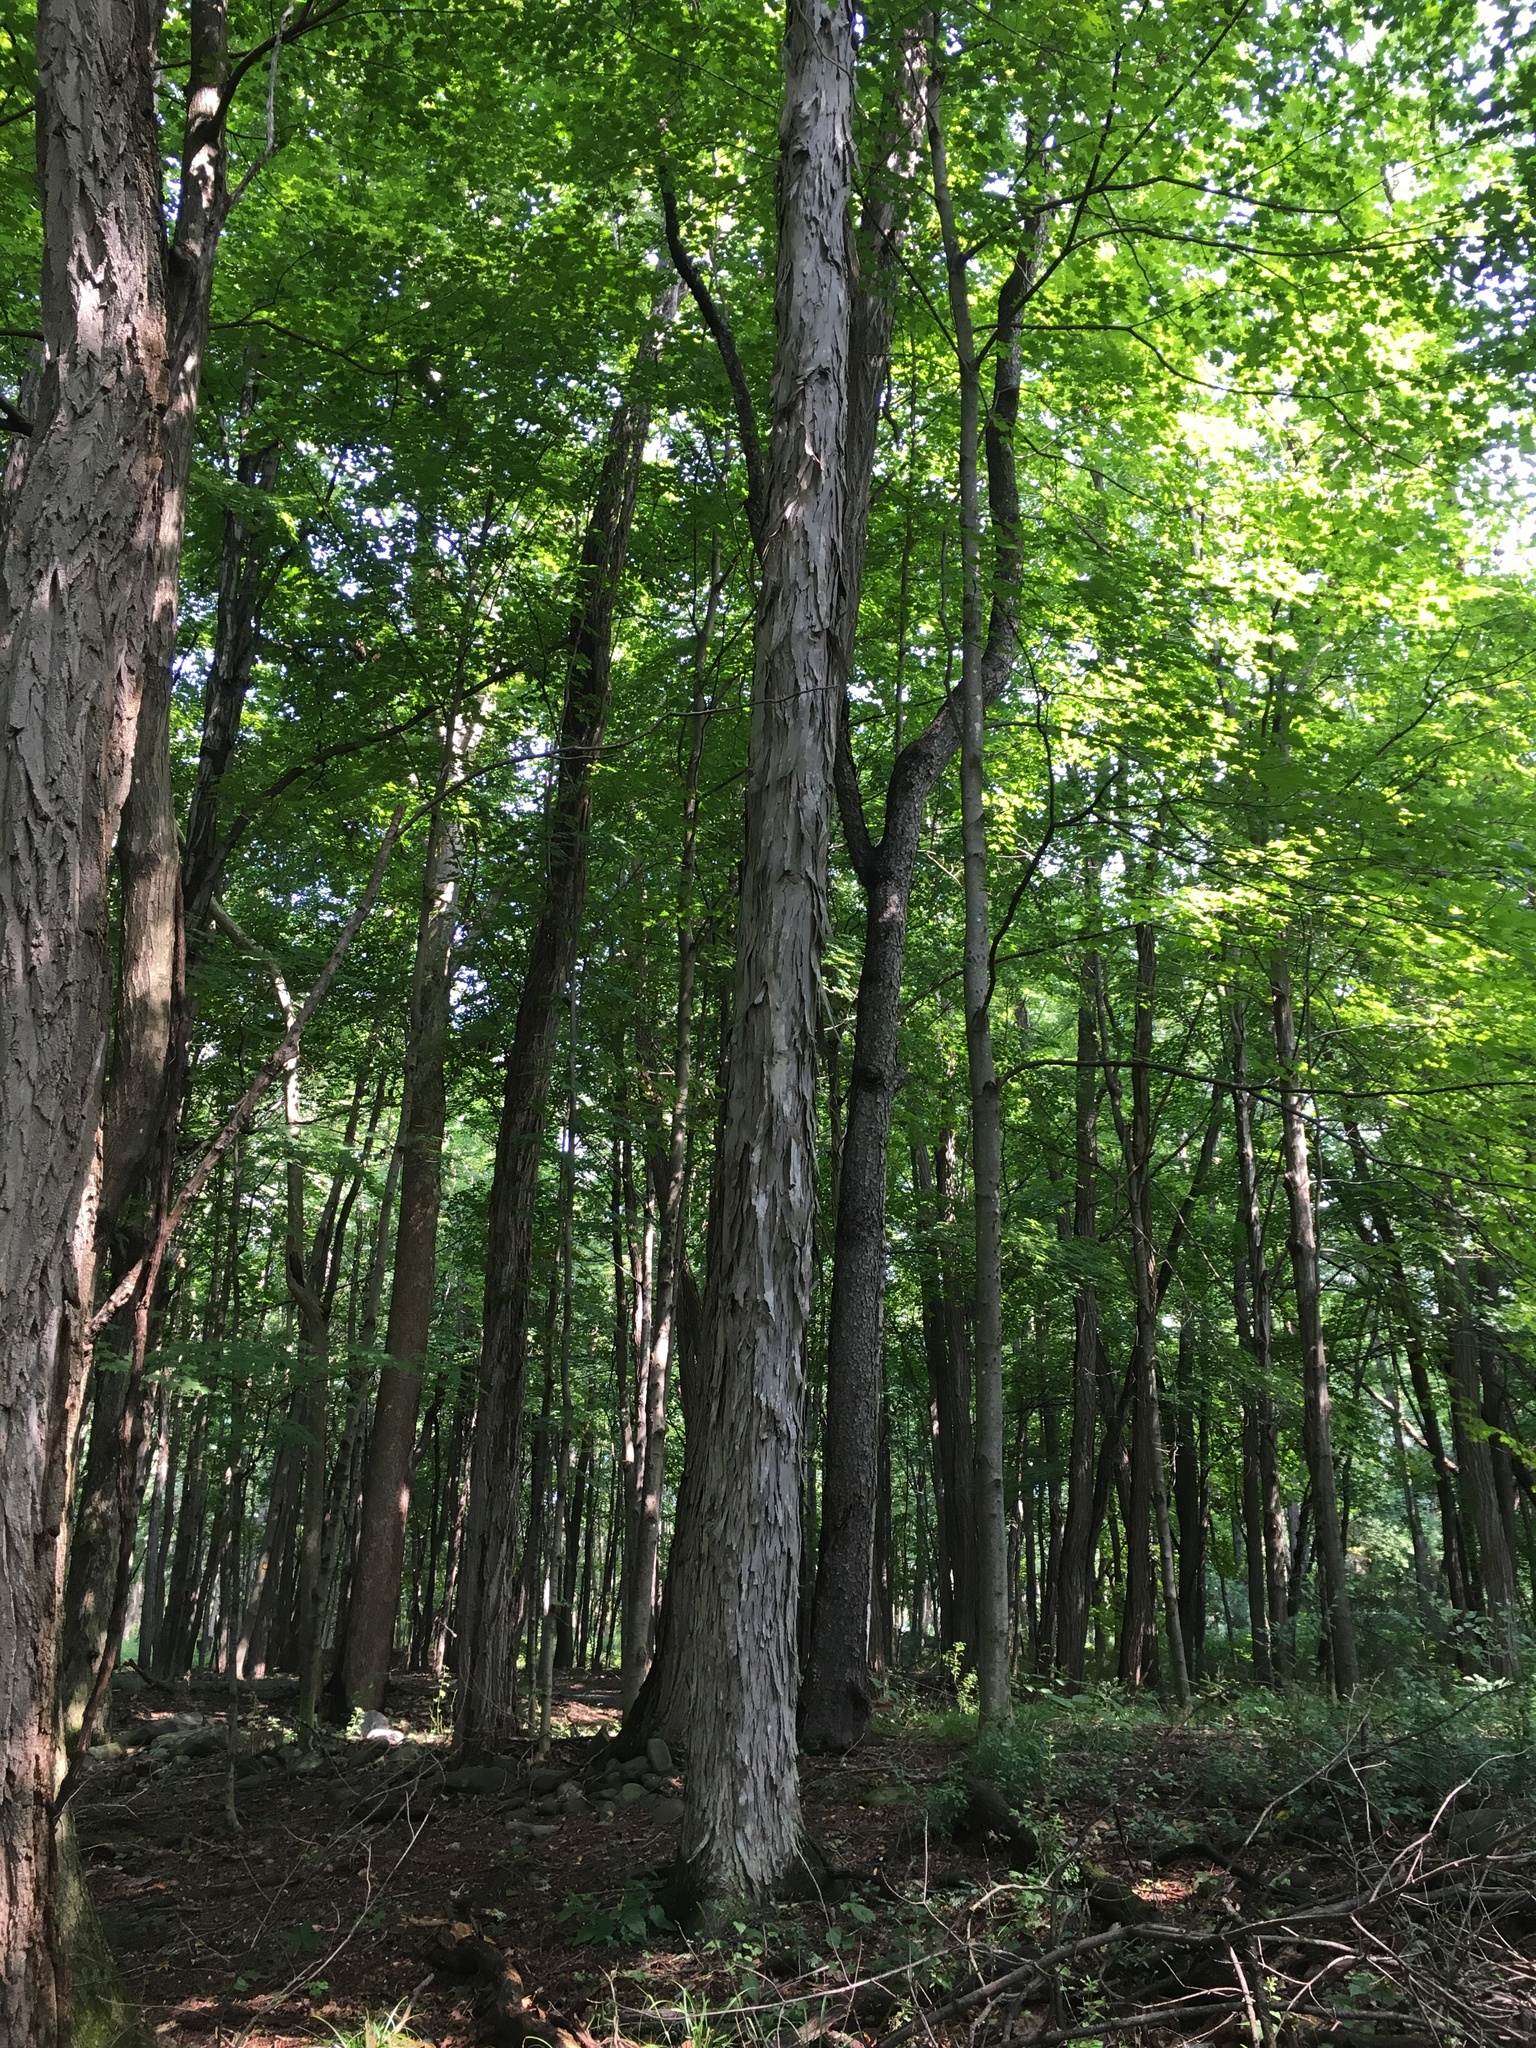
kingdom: Plantae
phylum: Tracheophyta
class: Magnoliopsida
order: Fagales
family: Juglandaceae
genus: Carya
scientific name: Carya ovata
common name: Shagbark hickory
